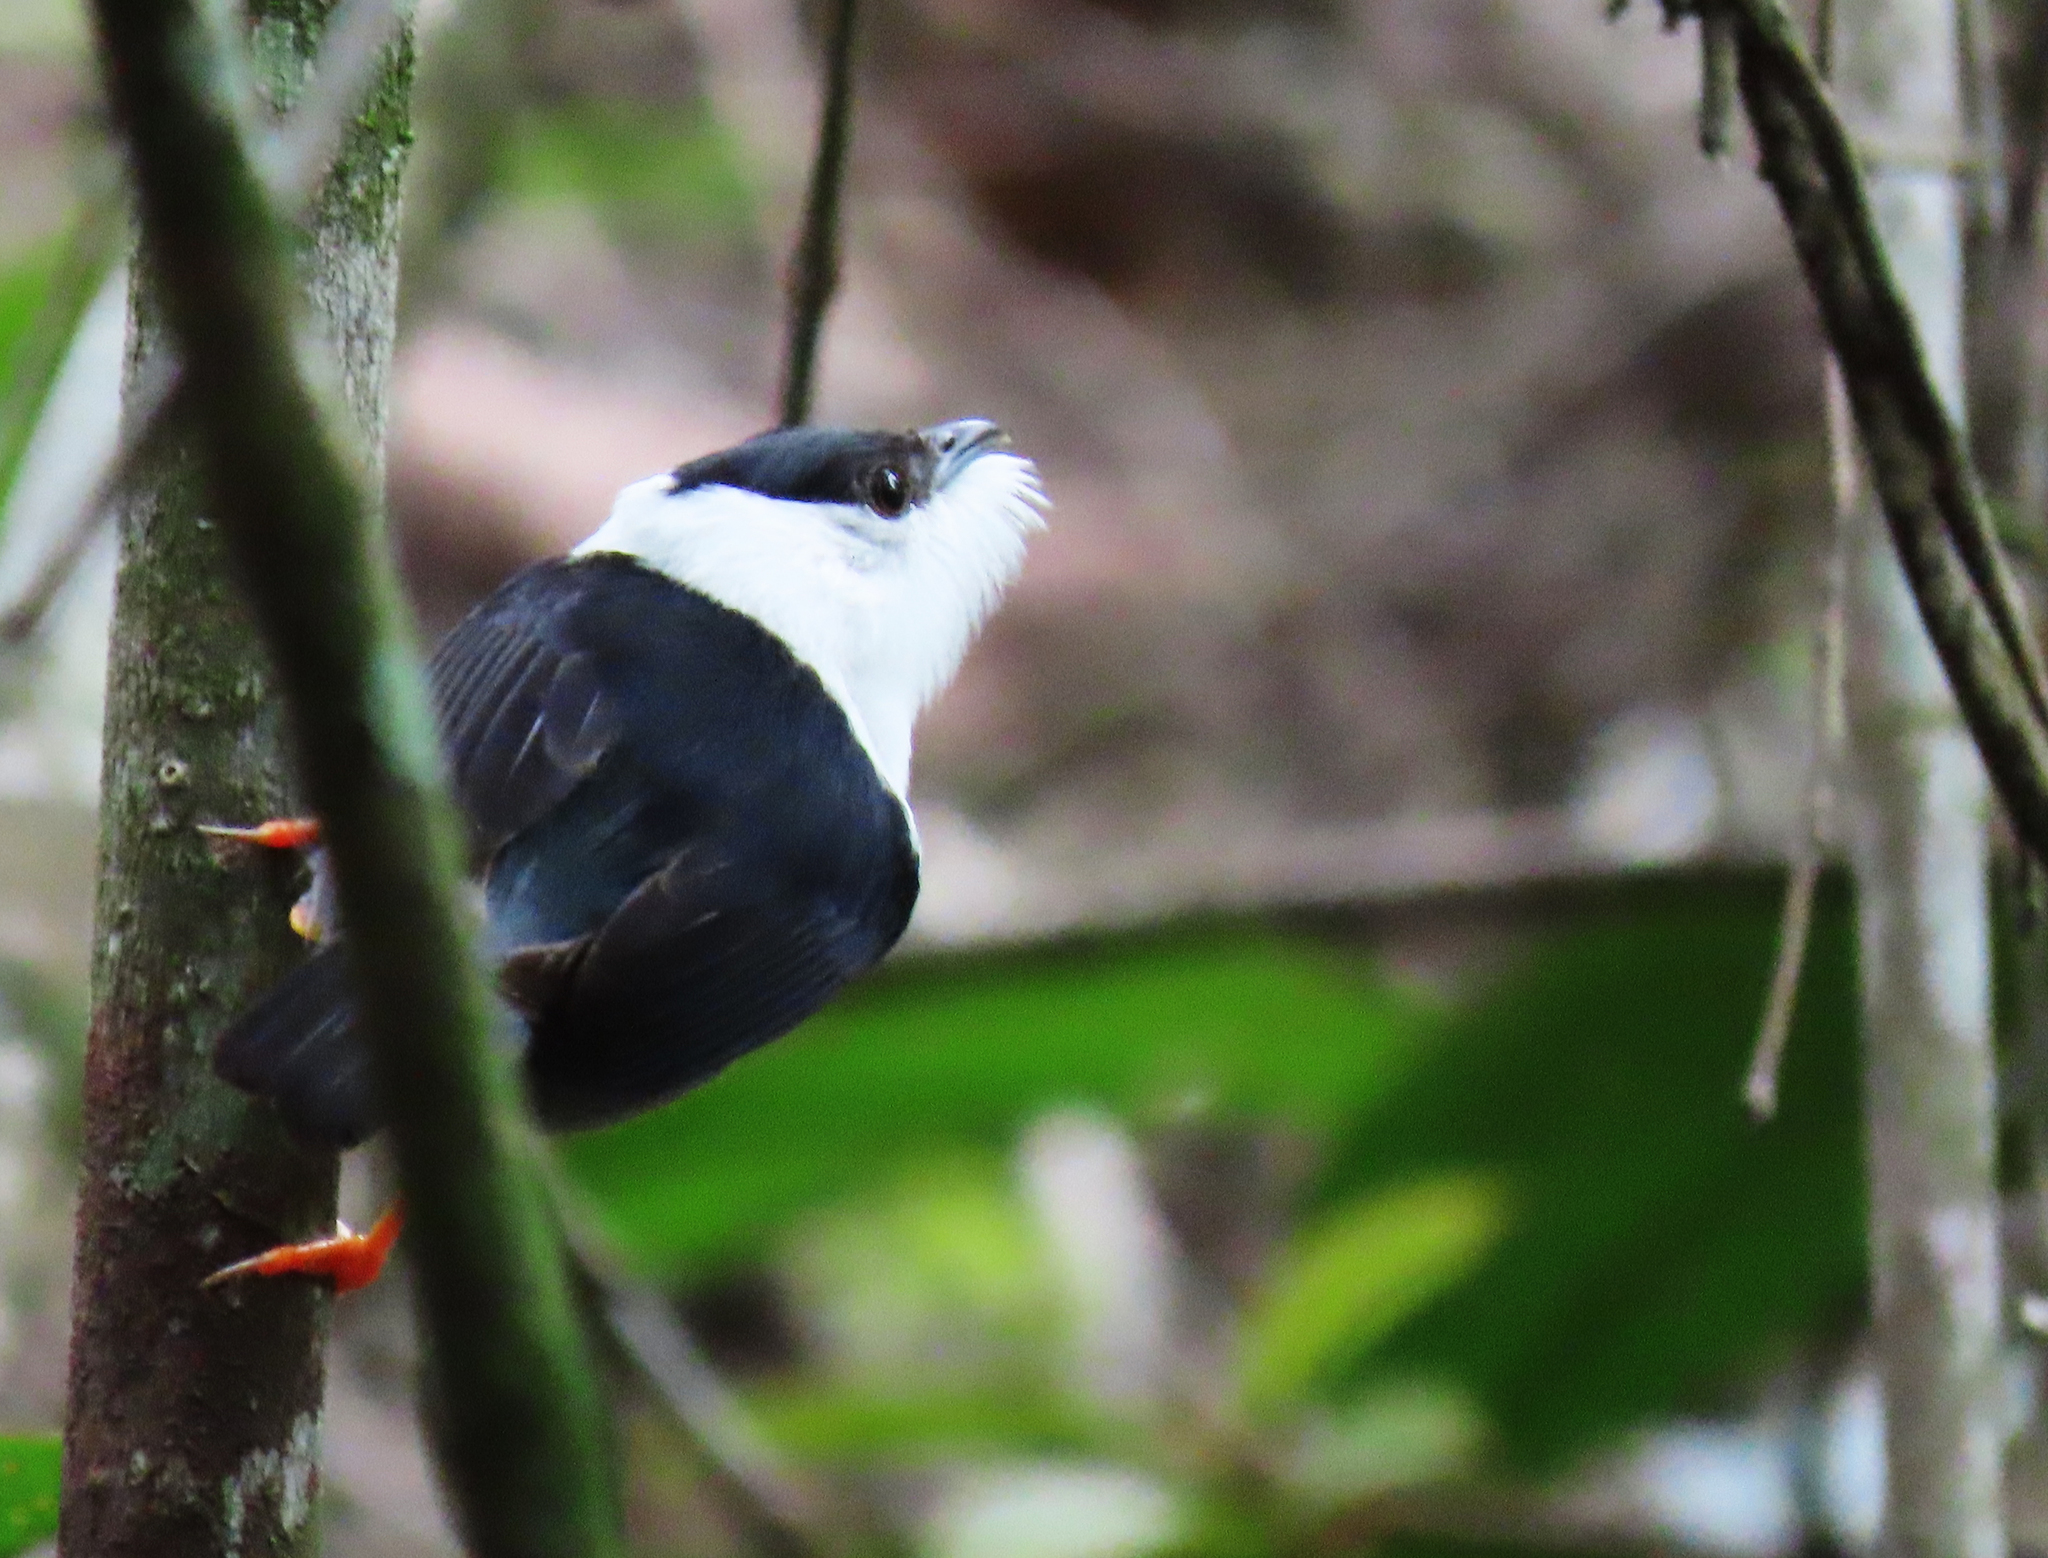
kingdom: Animalia
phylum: Chordata
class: Aves
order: Passeriformes
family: Pipridae
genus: Manacus
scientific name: Manacus manacus
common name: White-bearded manakin
